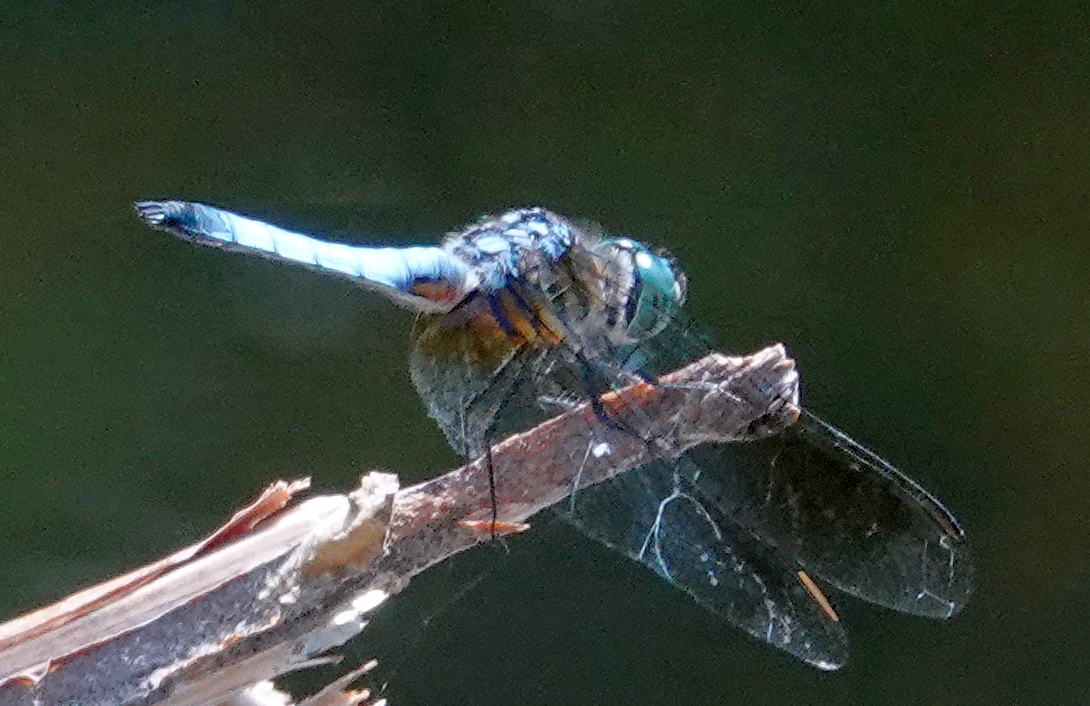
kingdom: Animalia
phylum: Arthropoda
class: Insecta
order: Odonata
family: Libellulidae
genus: Pachydiplax
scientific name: Pachydiplax longipennis
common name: Blue dasher
